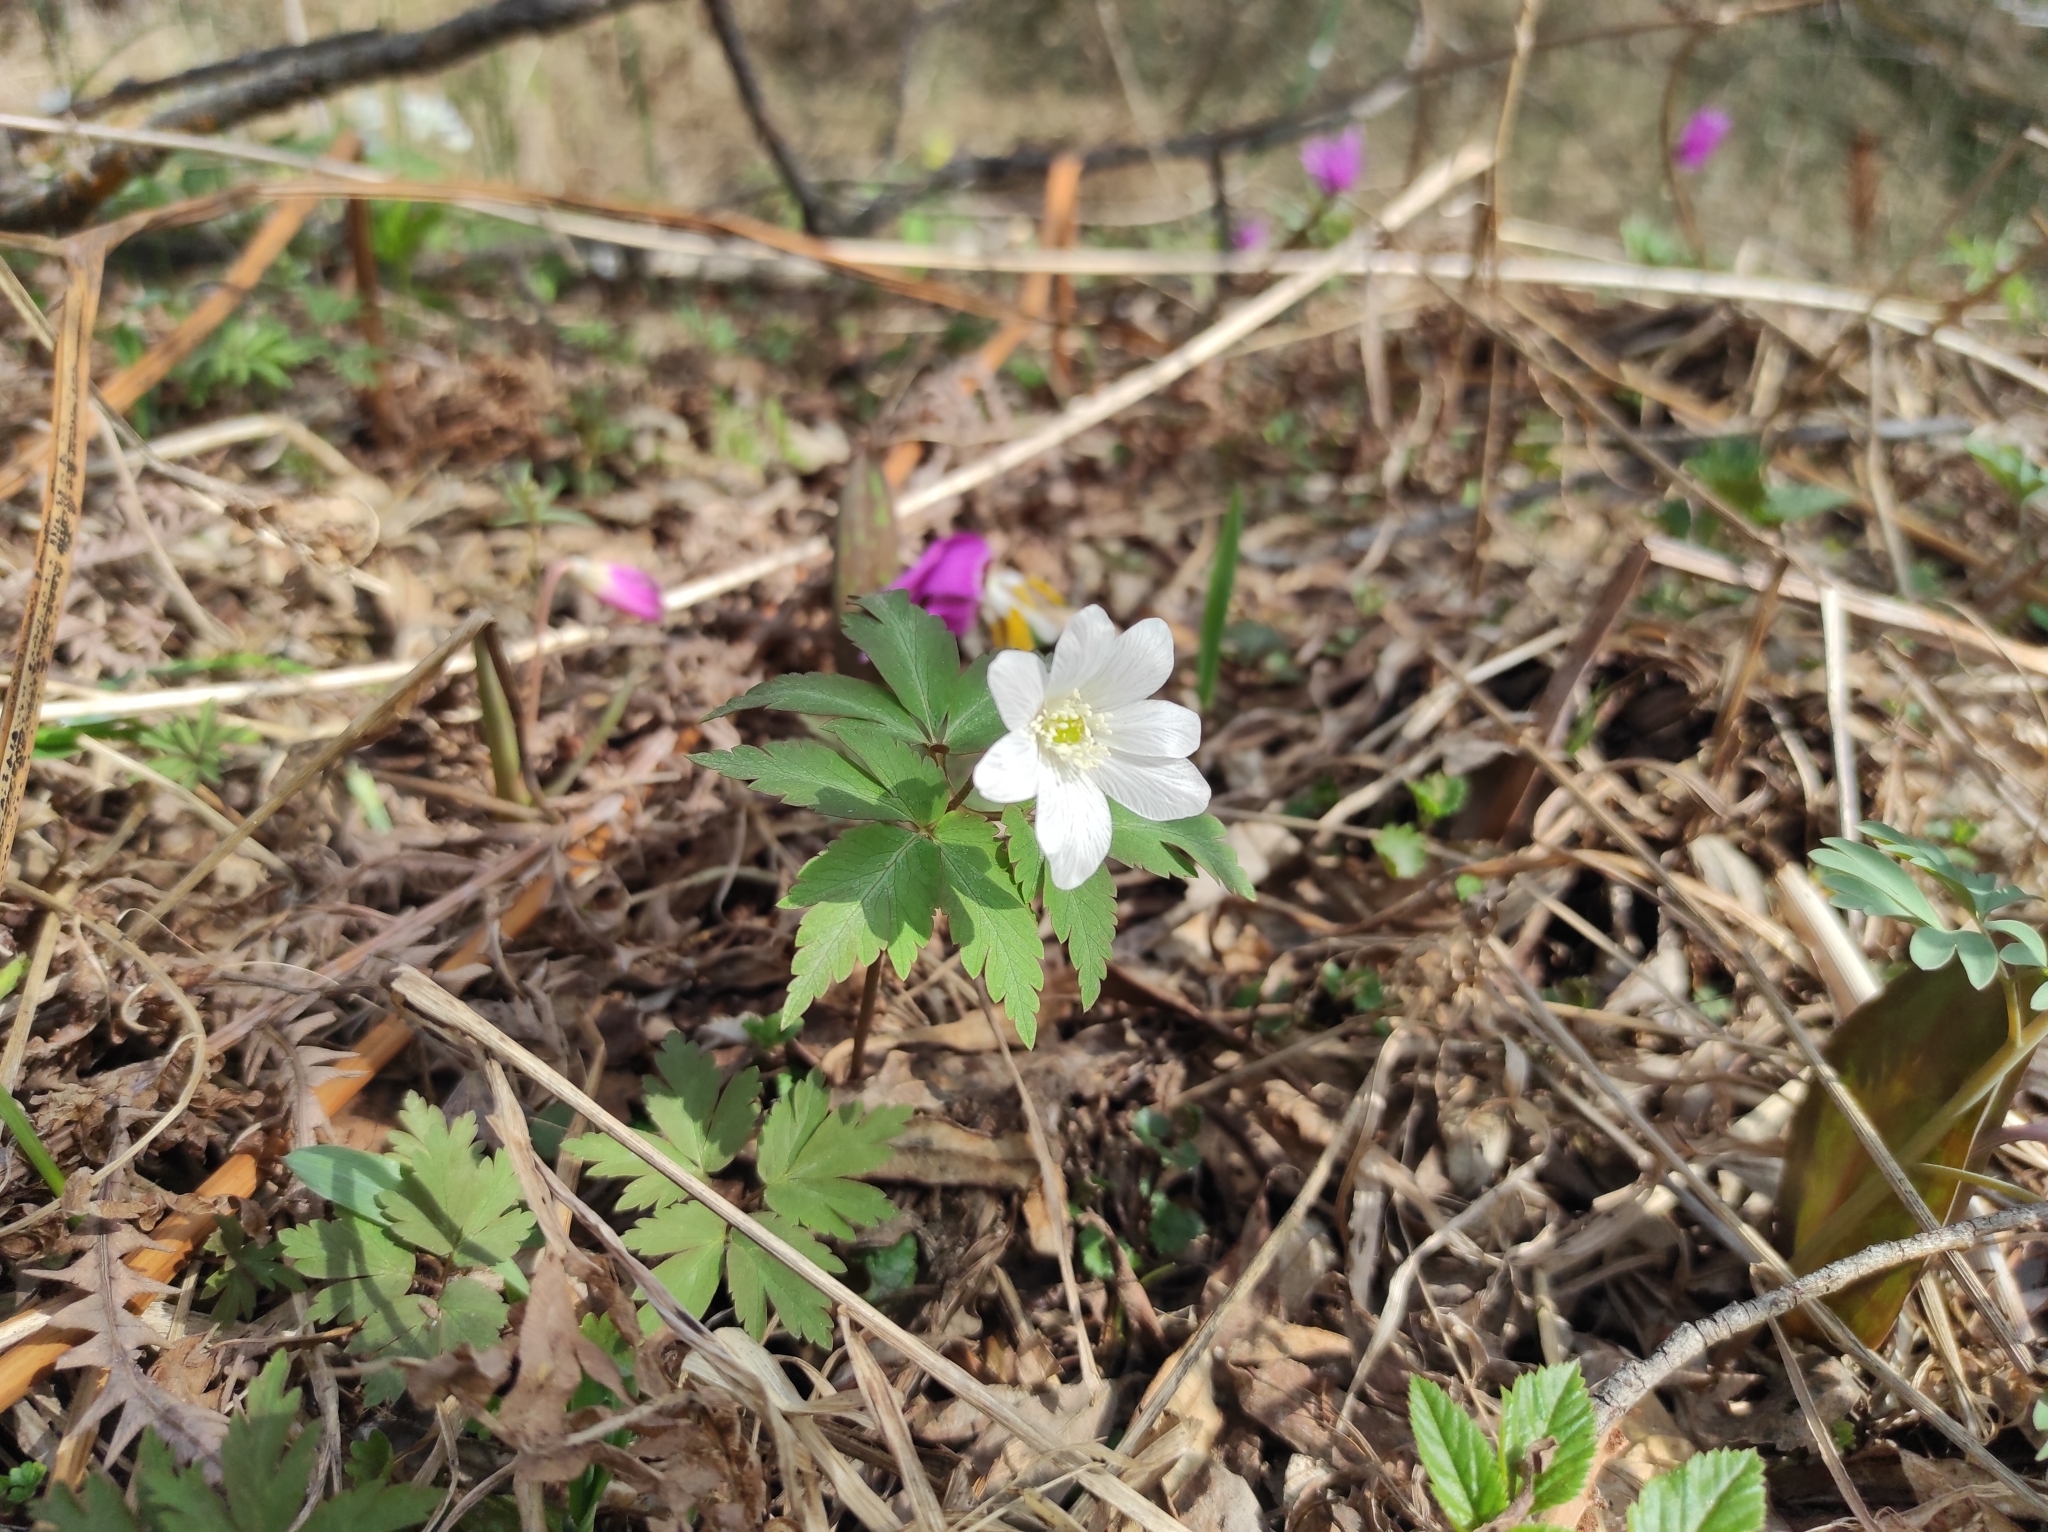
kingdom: Plantae
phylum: Tracheophyta
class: Magnoliopsida
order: Ranunculales
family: Ranunculaceae
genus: Anemone
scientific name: Anemone altaica
